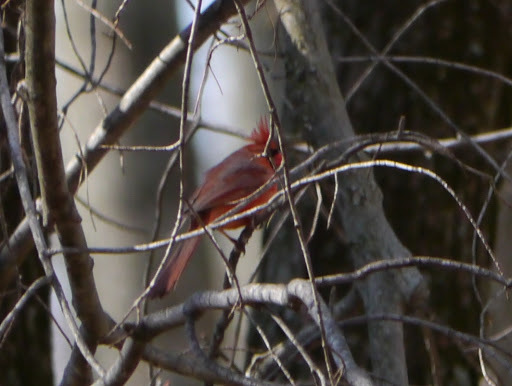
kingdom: Animalia
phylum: Chordata
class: Aves
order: Passeriformes
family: Cardinalidae
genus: Cardinalis
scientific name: Cardinalis cardinalis
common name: Northern cardinal
